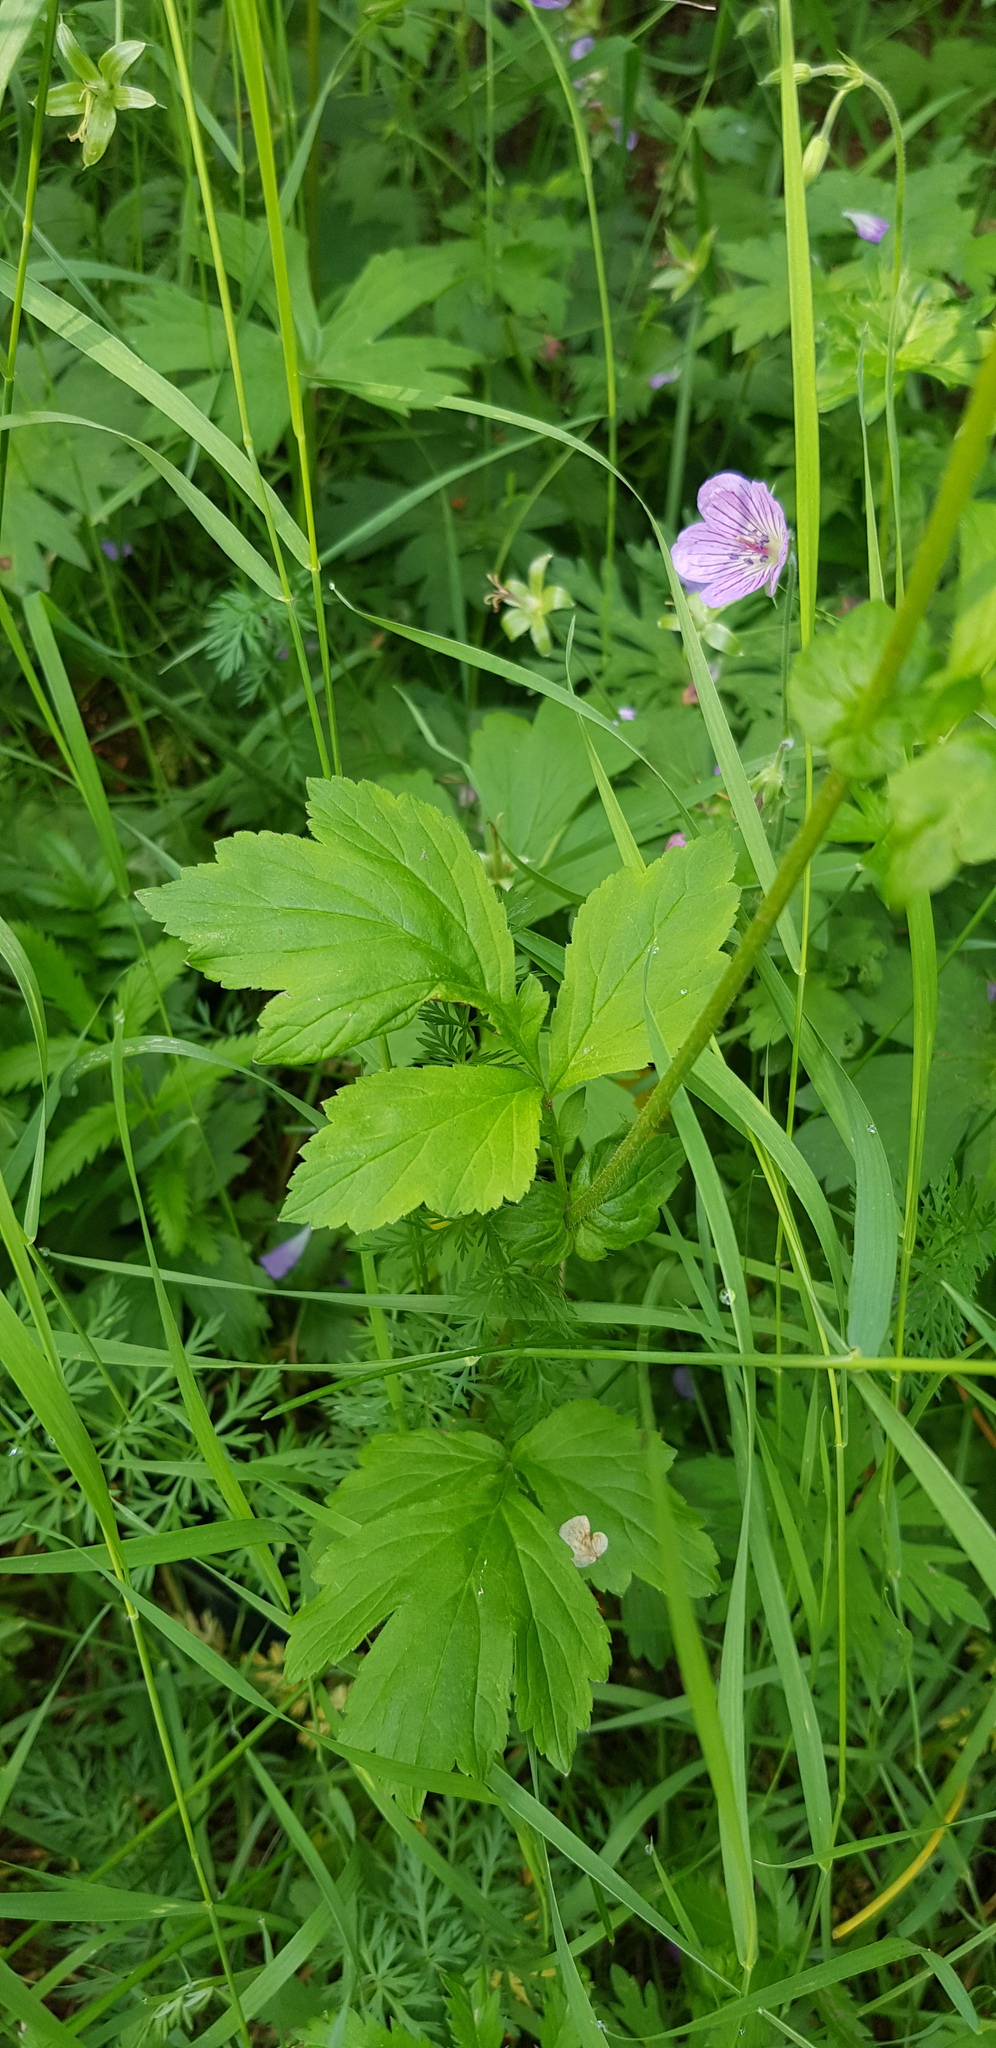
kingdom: Plantae
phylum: Tracheophyta
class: Magnoliopsida
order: Rosales
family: Rosaceae
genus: Geum
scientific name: Geum aleppicum
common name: Yellow avens
